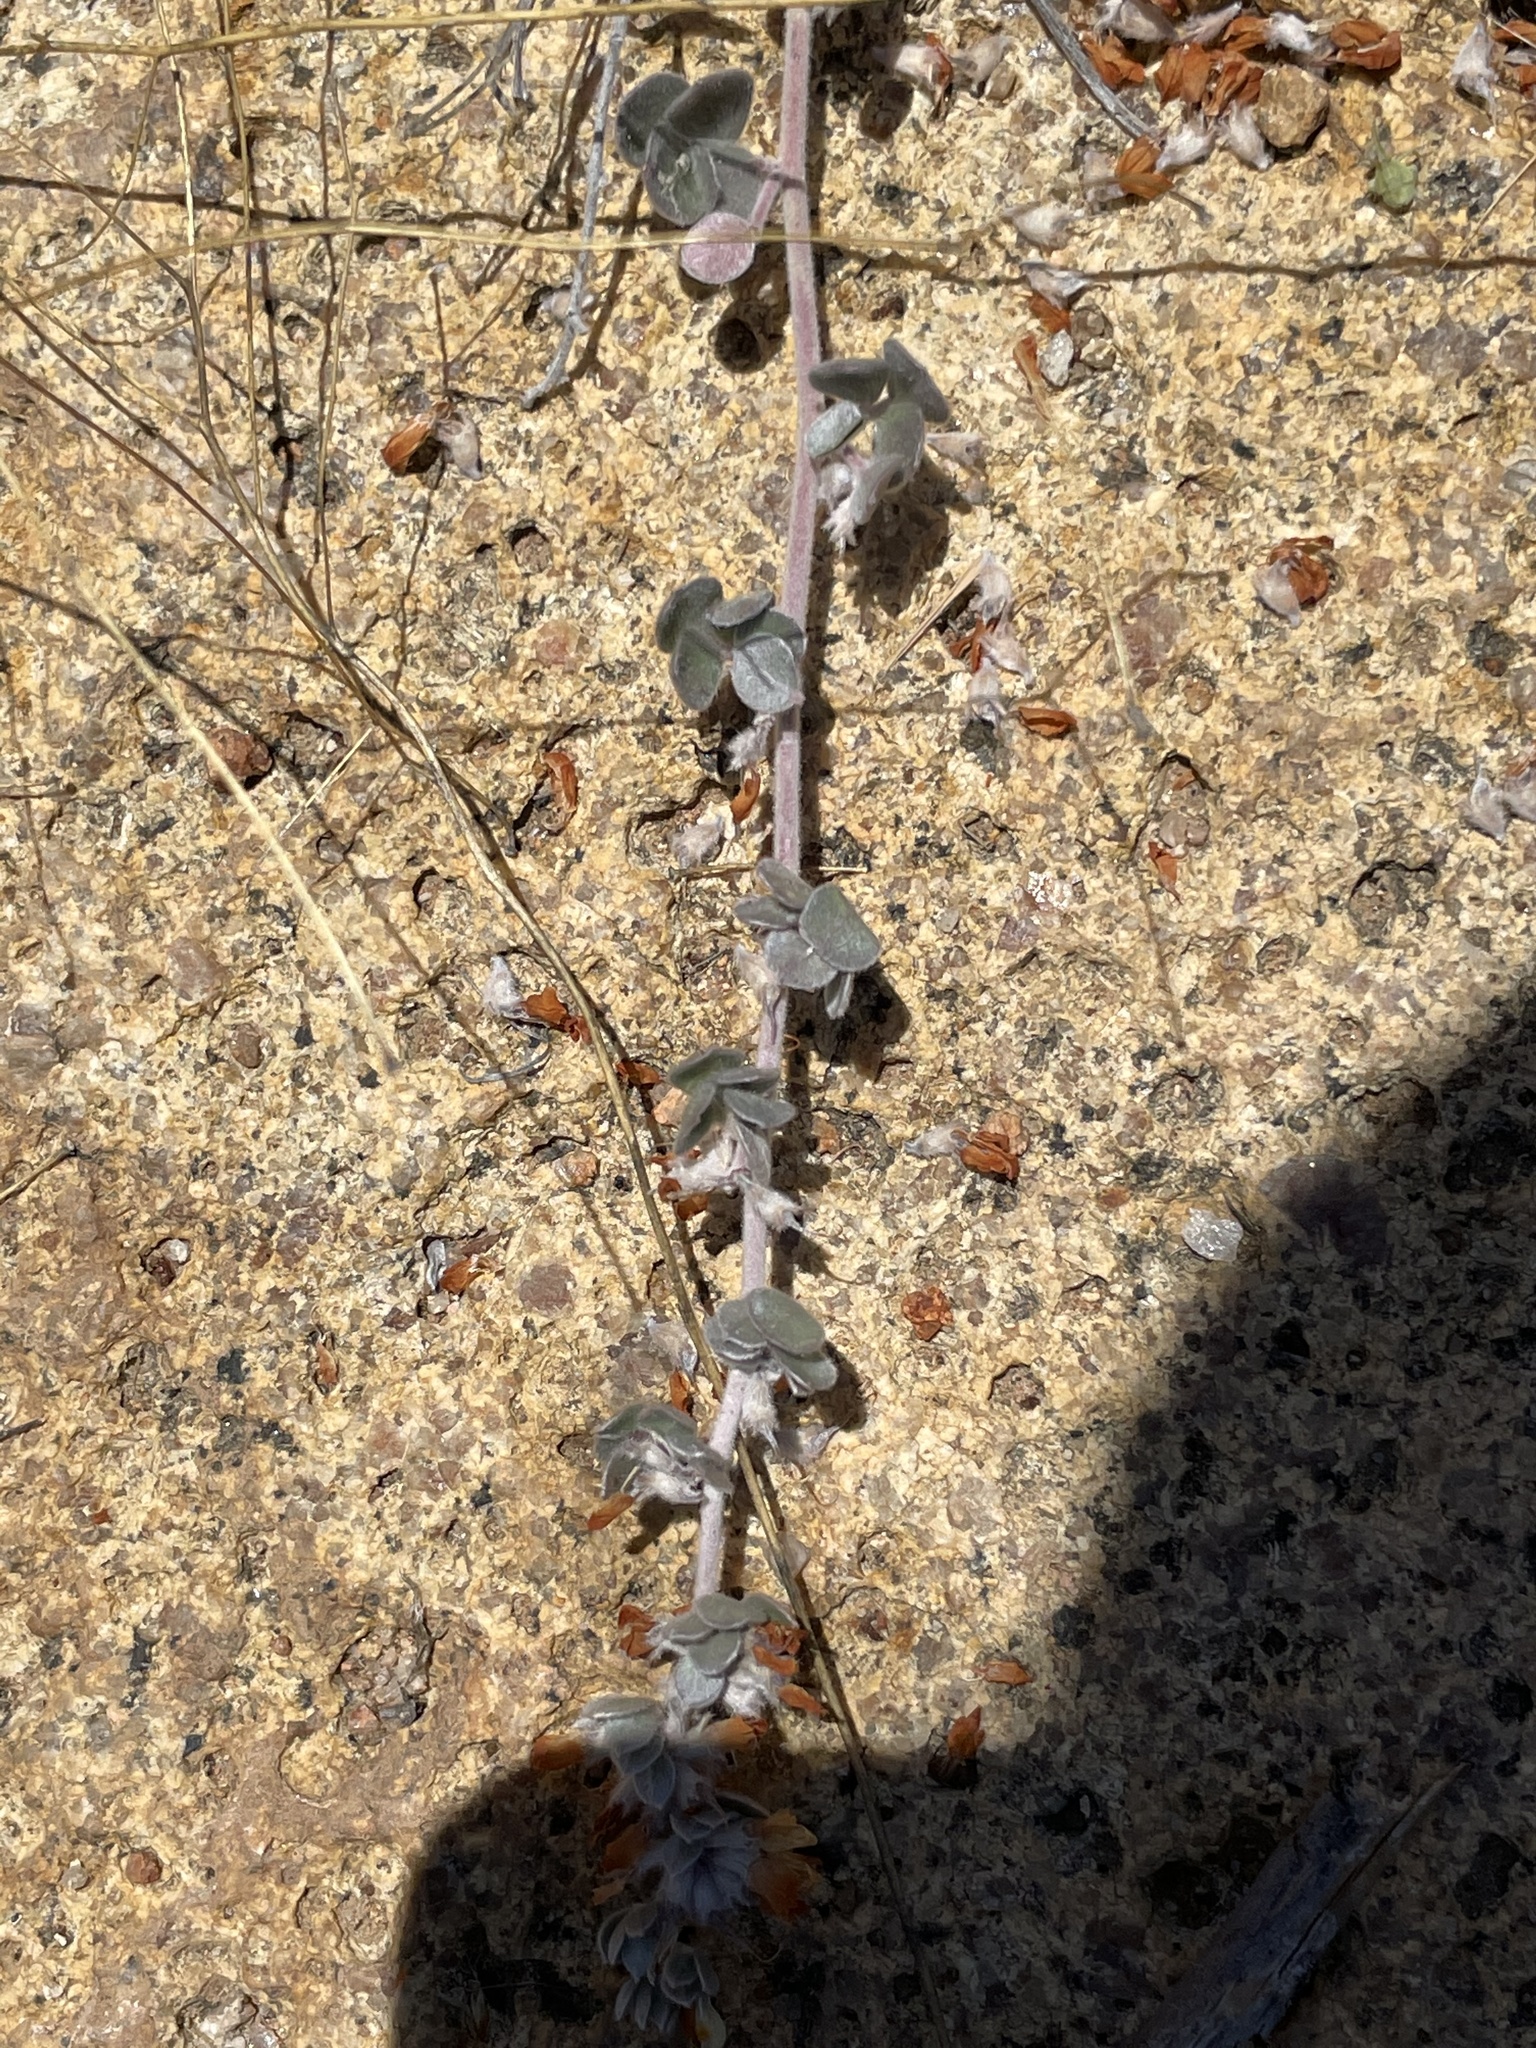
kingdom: Plantae
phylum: Tracheophyta
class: Magnoliopsida
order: Fabales
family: Fabaceae
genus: Acmispon
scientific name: Acmispon argophyllus
